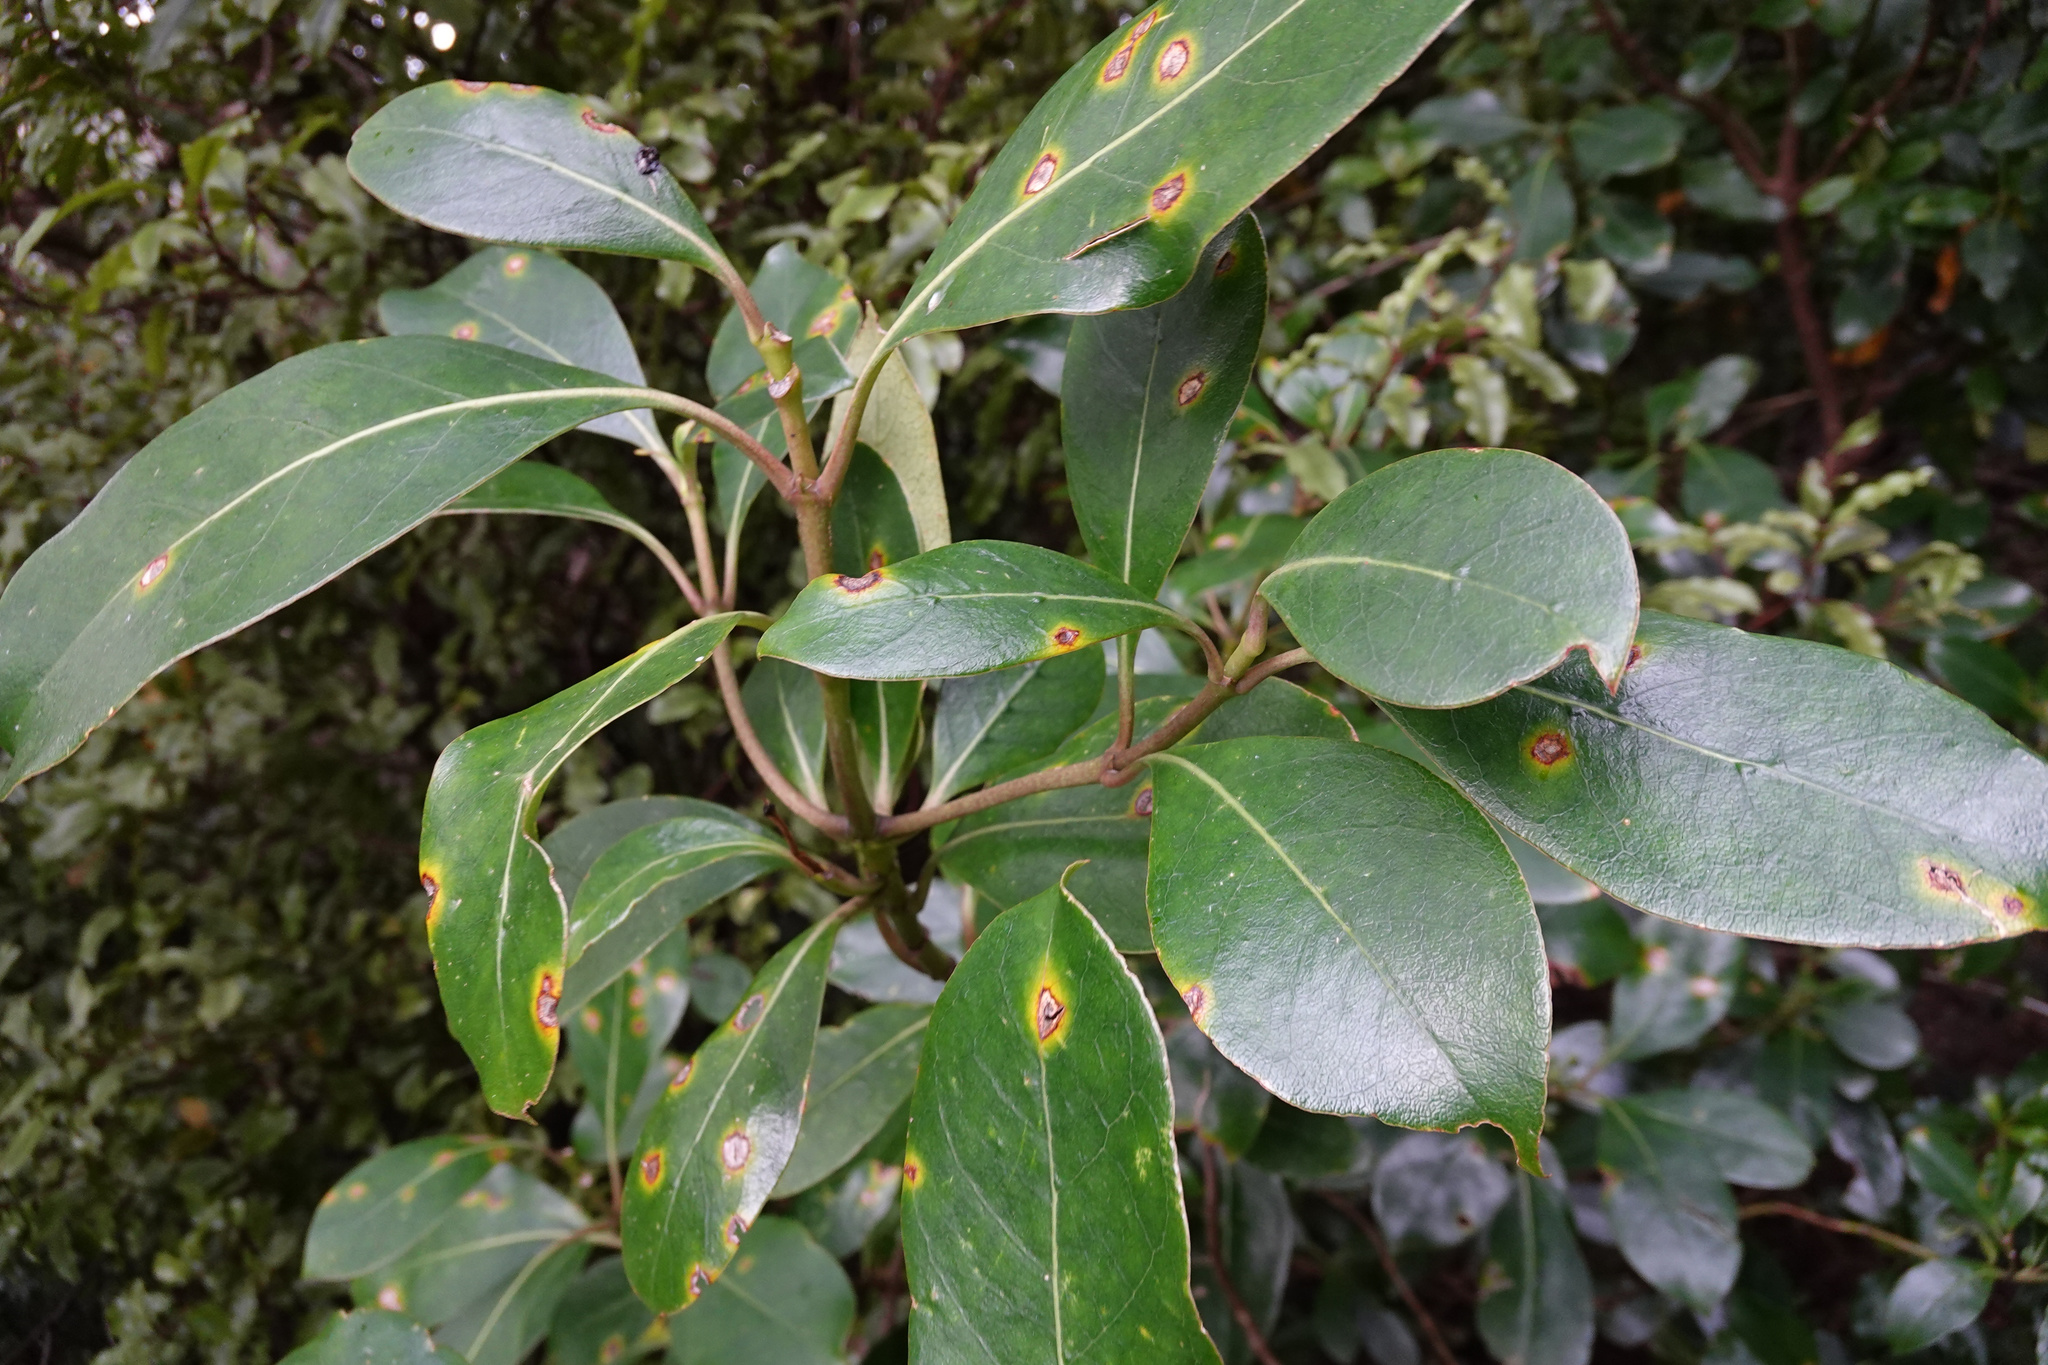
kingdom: Fungi
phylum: Basidiomycota
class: Pucciniomycetes
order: Pucciniales
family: Pucciniaceae
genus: Puccinia
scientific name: Puccinia coprosmae
